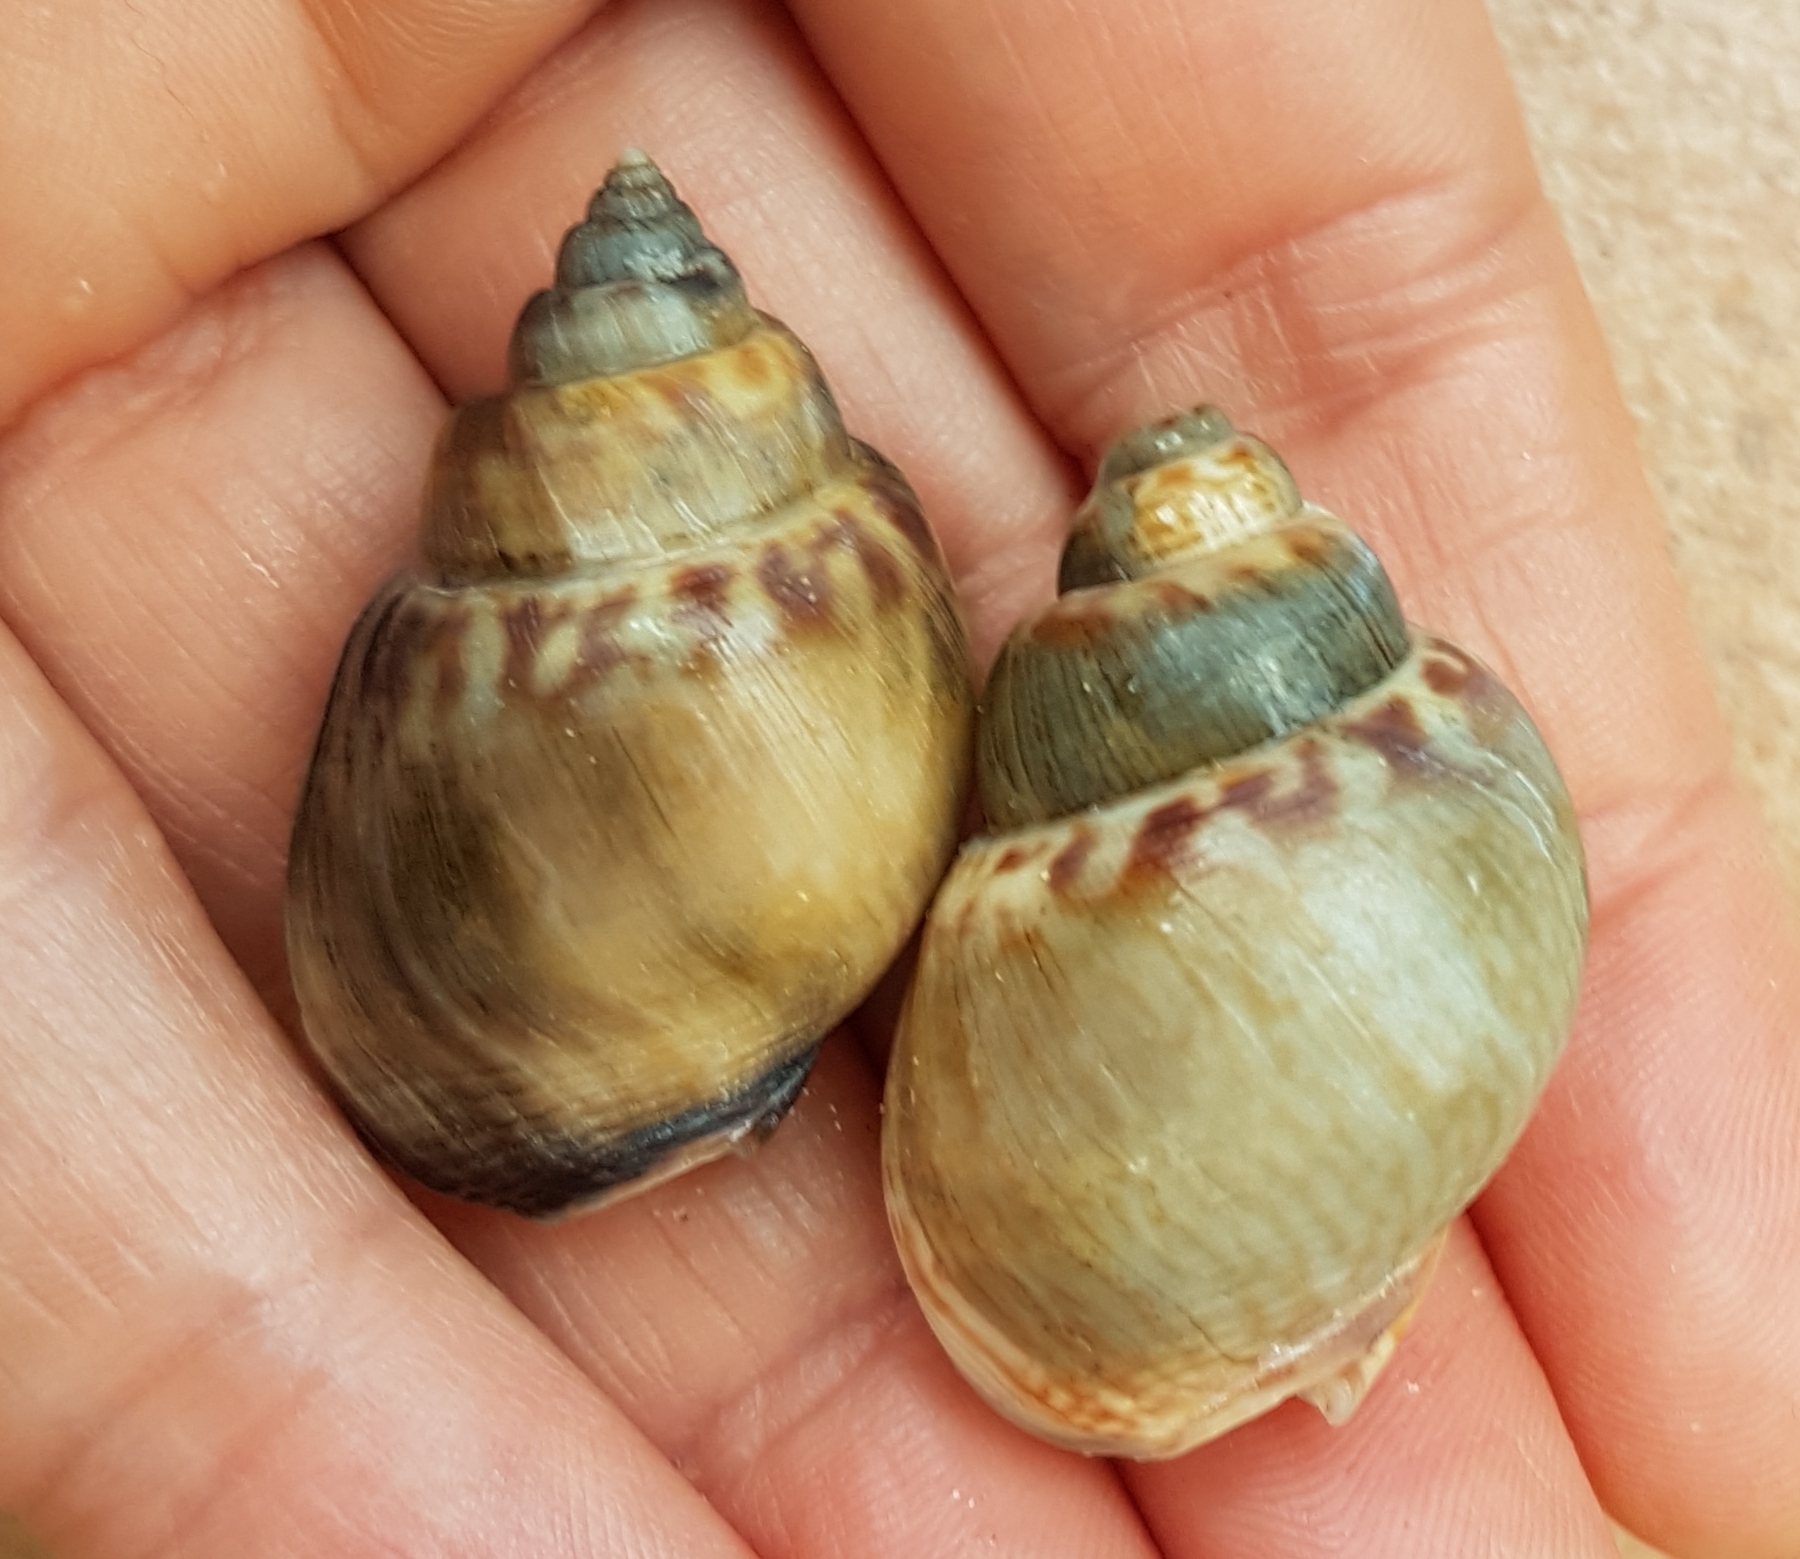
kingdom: Animalia
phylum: Mollusca
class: Gastropoda
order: Neogastropoda
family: Nassariidae
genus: Tritia
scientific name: Tritia mutabilis
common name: Mutable nassa
